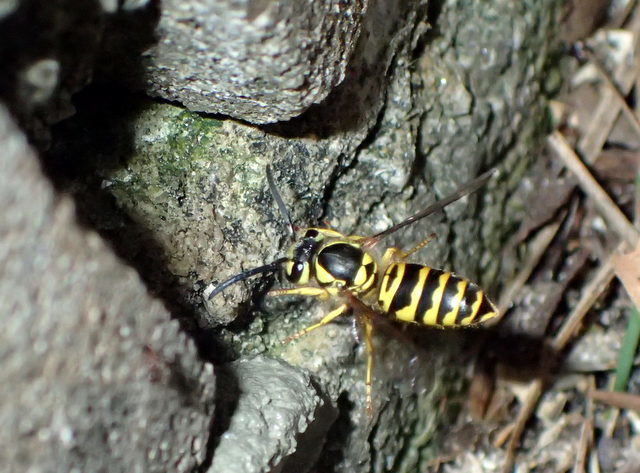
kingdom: Animalia
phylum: Arthropoda
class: Insecta
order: Hymenoptera
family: Vespidae
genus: Vespula
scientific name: Vespula maculifrons
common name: Eastern yellowjacket
